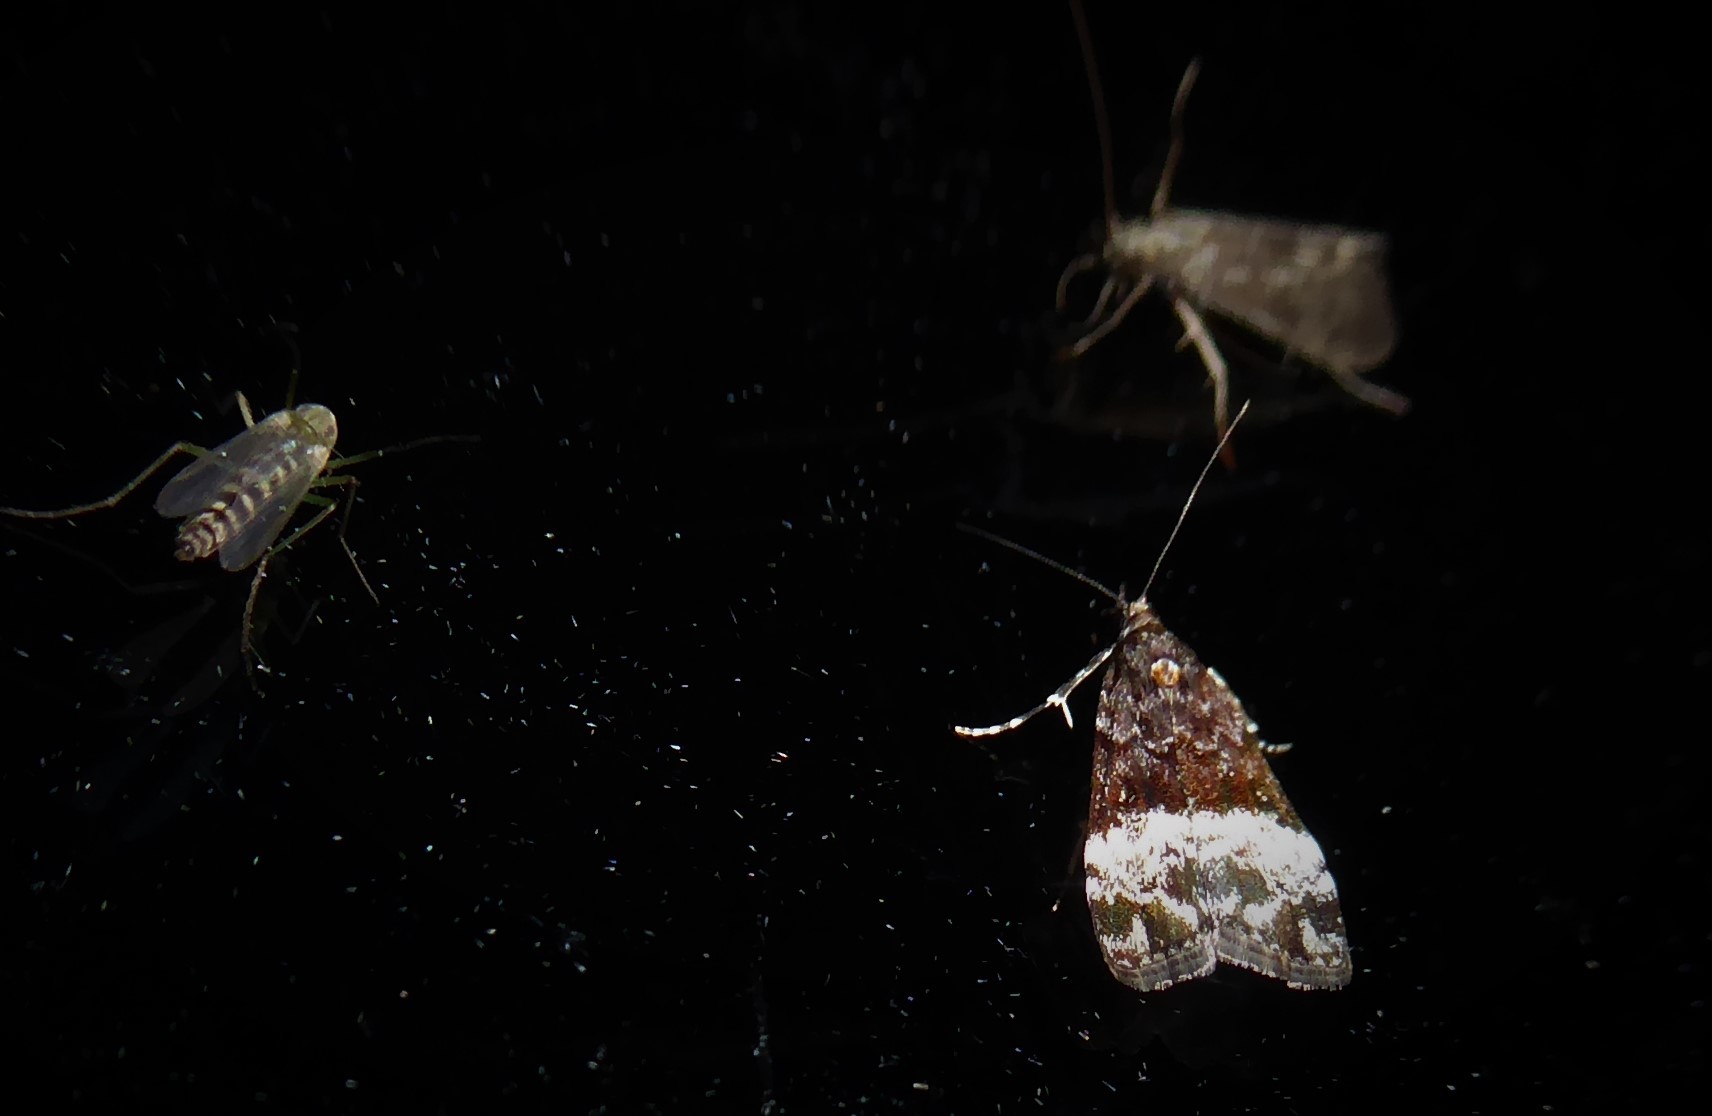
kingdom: Animalia
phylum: Arthropoda
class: Insecta
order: Lepidoptera
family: Crambidae
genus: Scoparia
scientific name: Scoparia minusculalis
